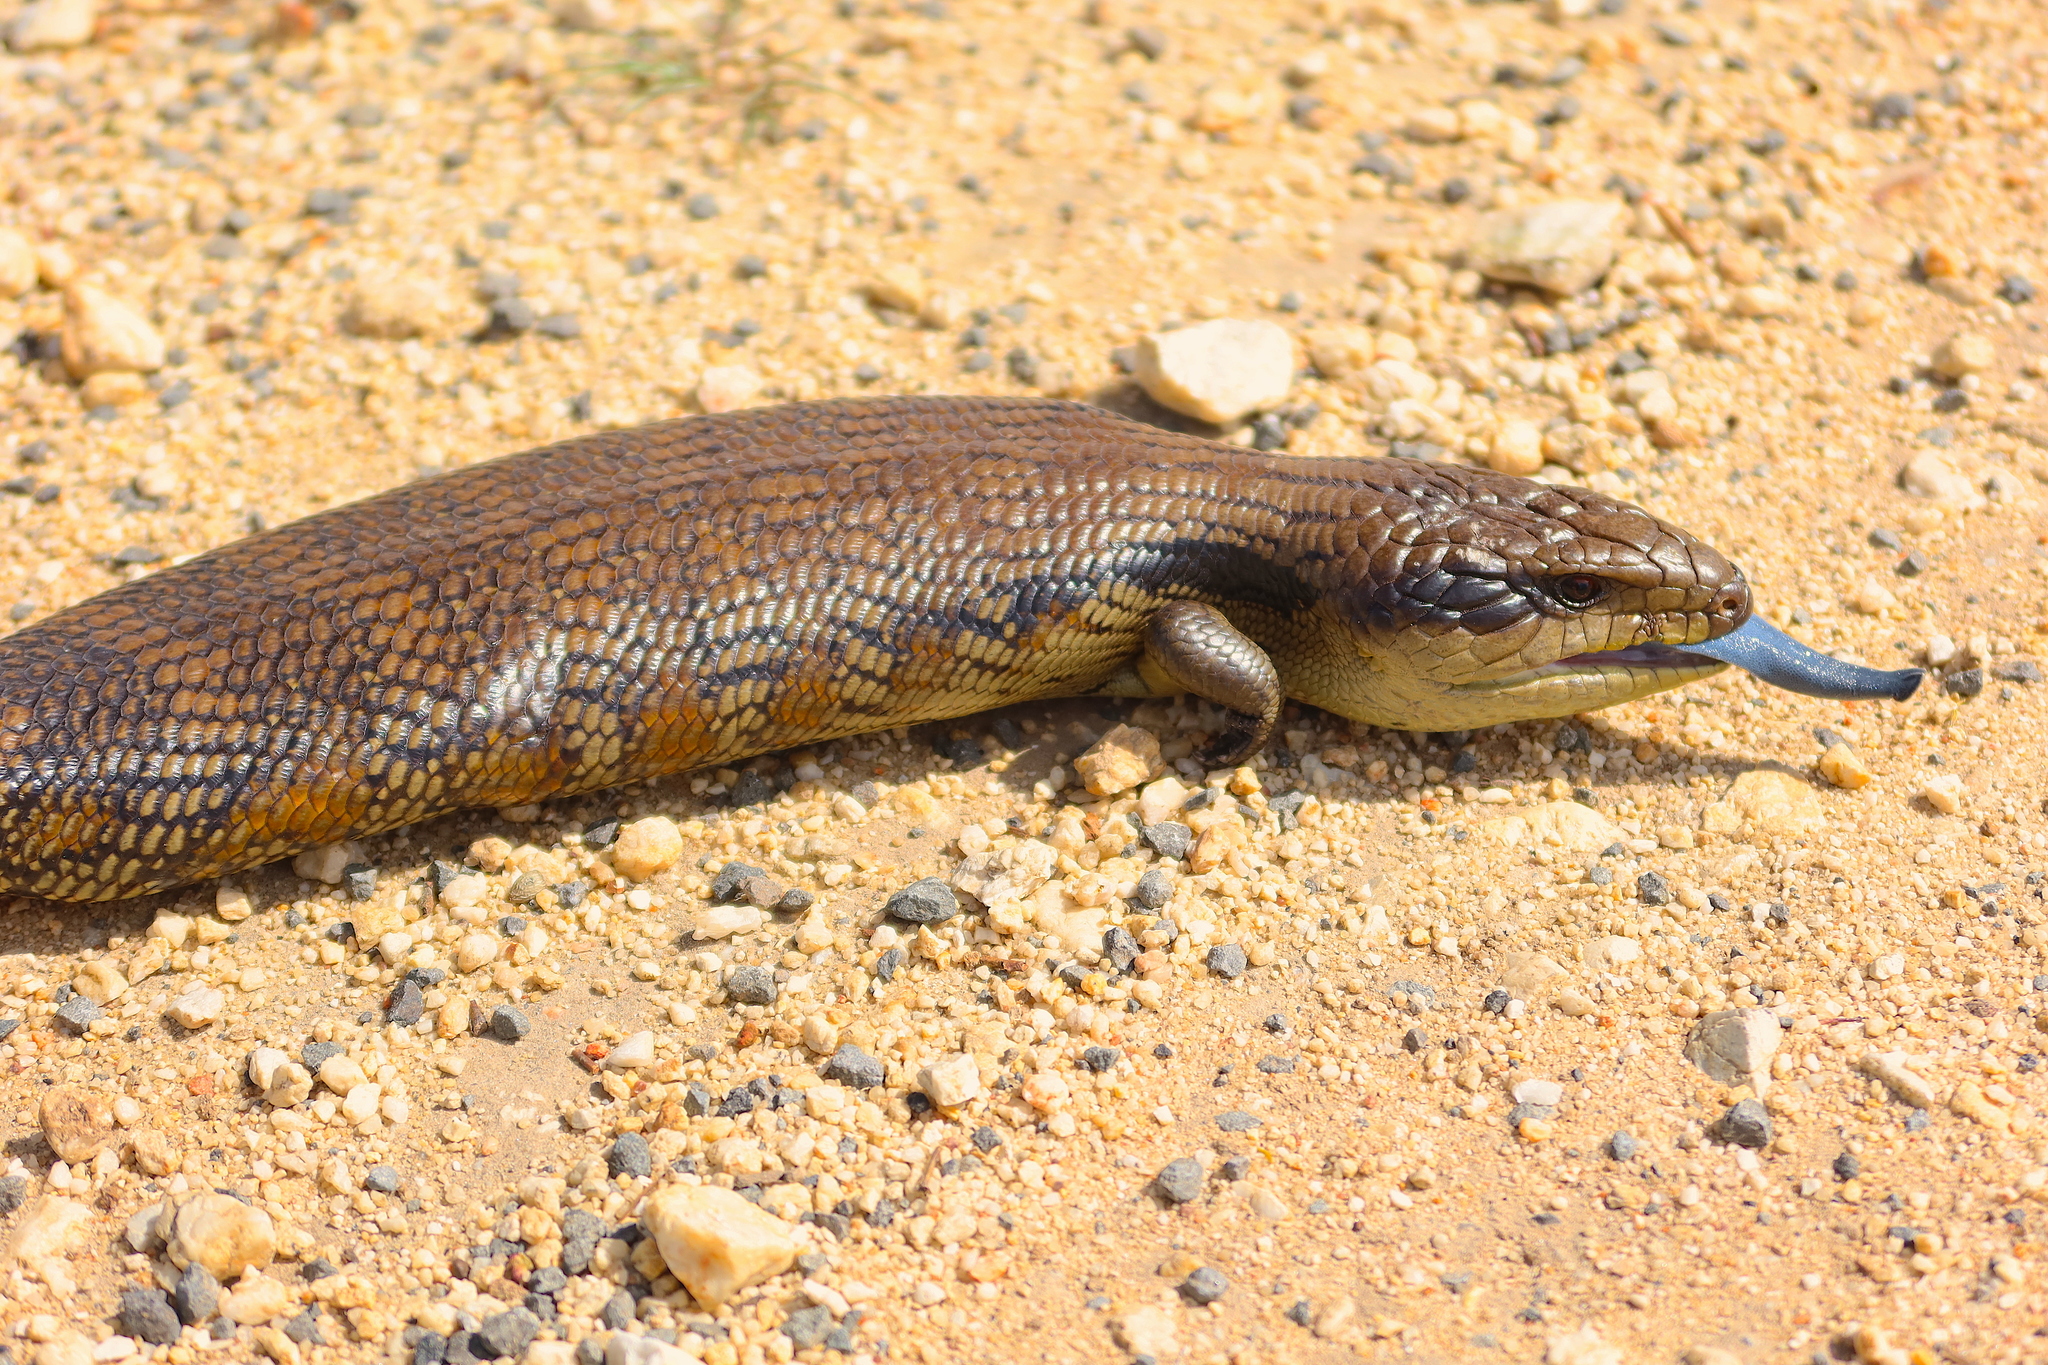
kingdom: Animalia
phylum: Chordata
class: Squamata
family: Scincidae
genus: Tiliqua
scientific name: Tiliqua scincoides
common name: Common bluetongue
